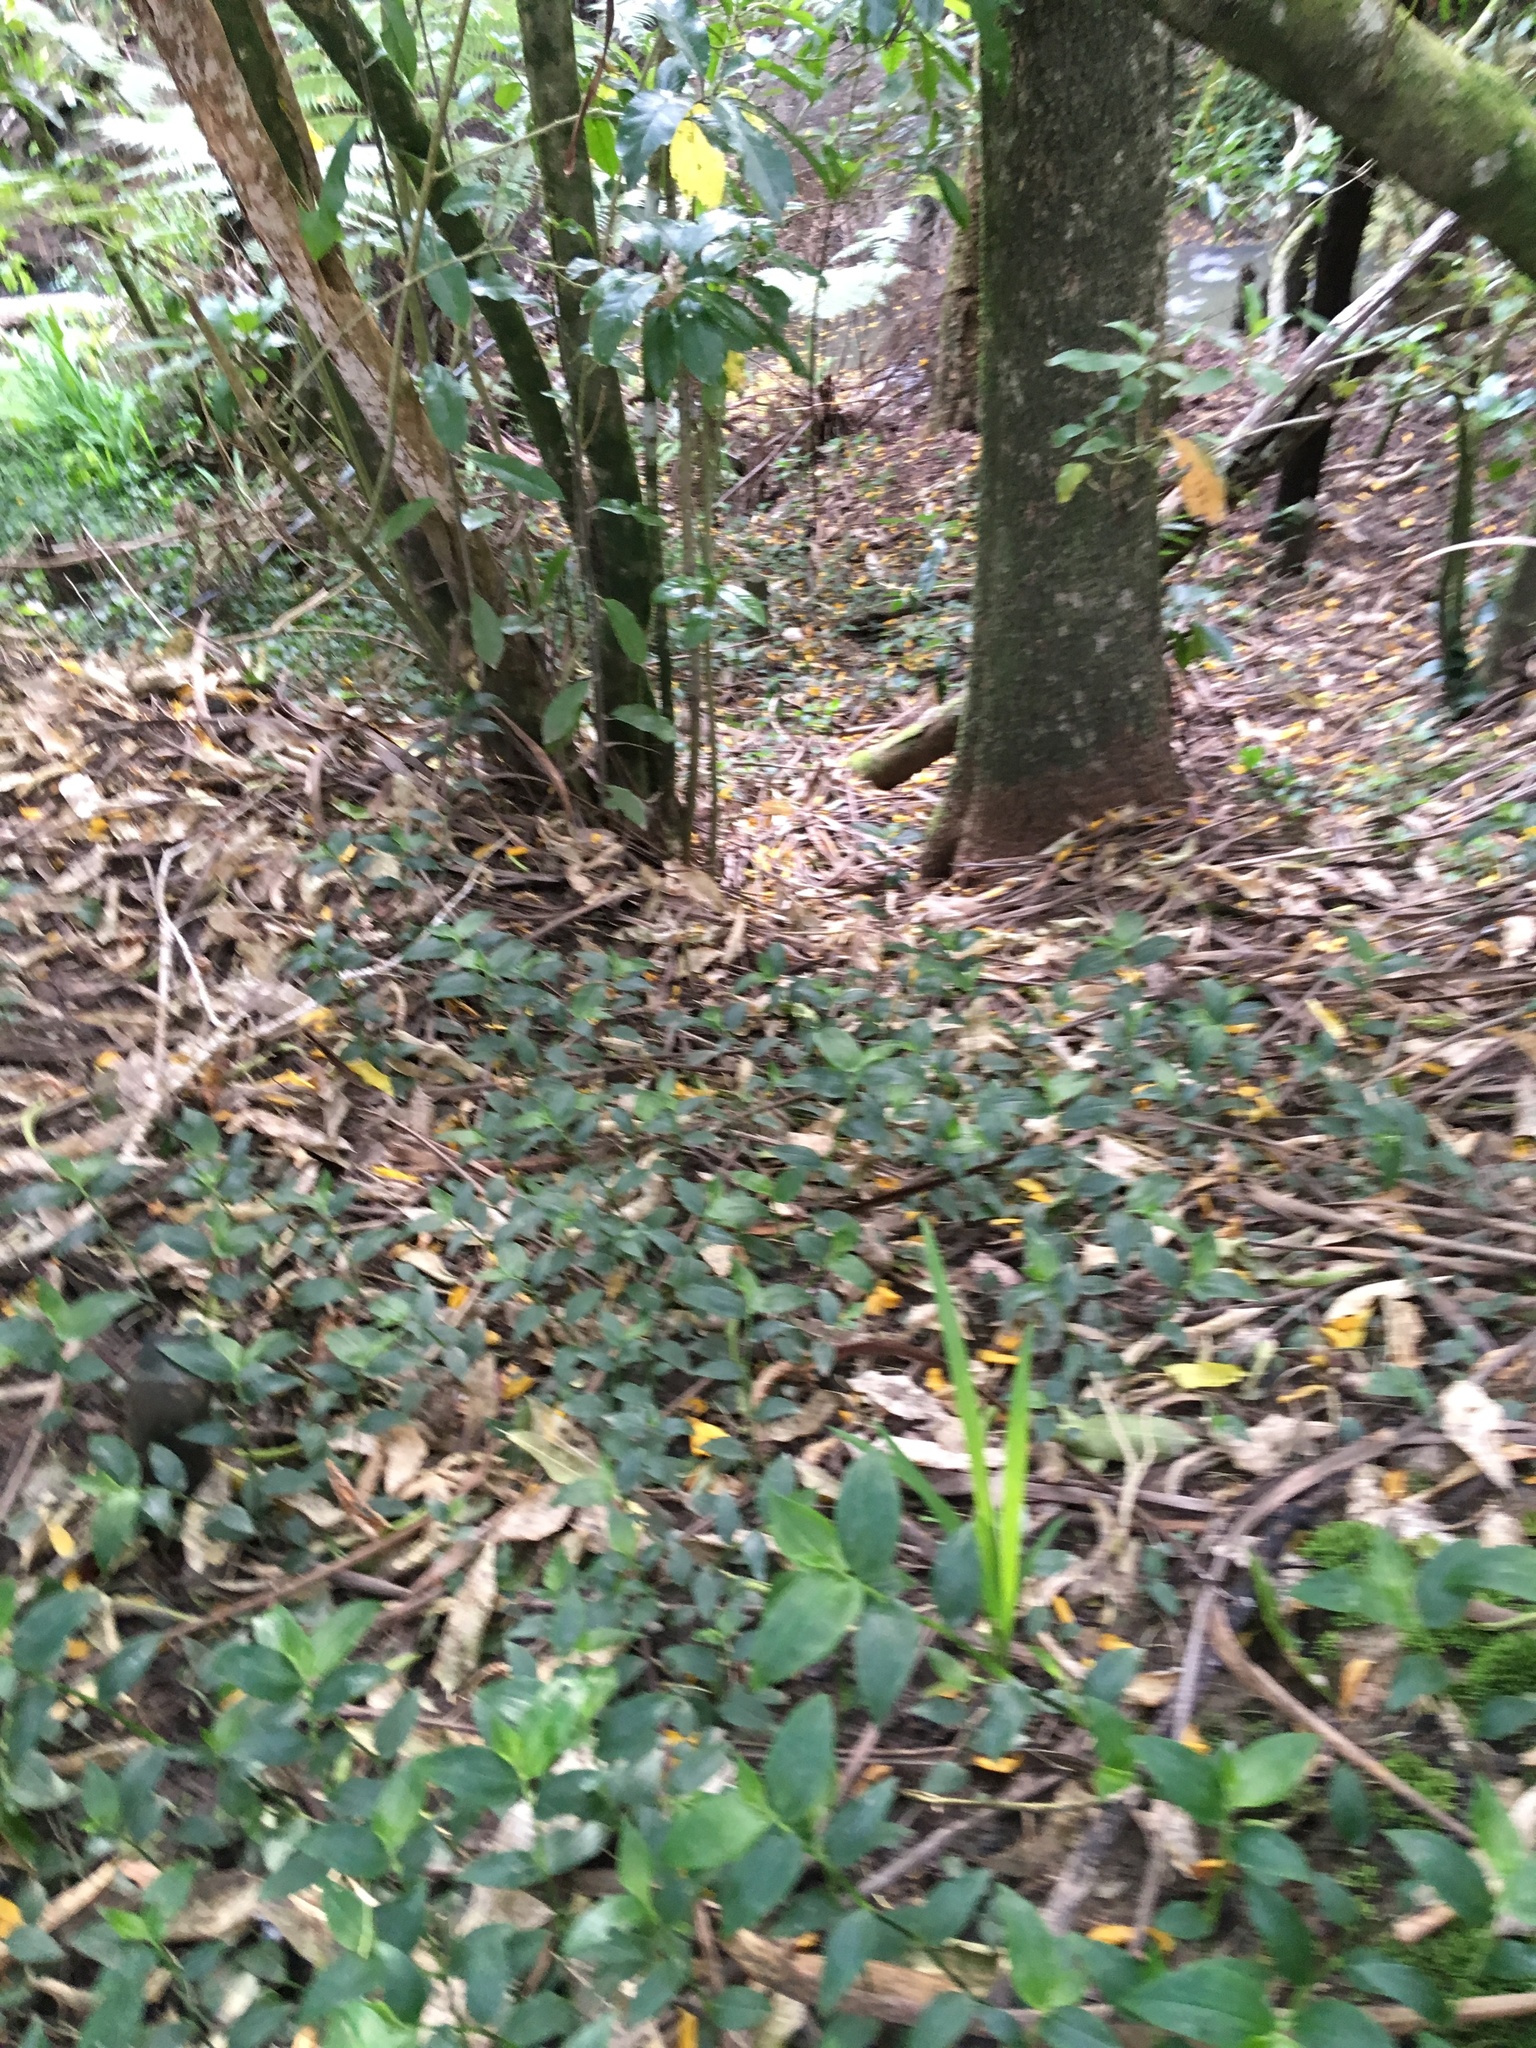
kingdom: Plantae
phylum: Tracheophyta
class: Liliopsida
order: Commelinales
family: Commelinaceae
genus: Tradescantia
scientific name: Tradescantia fluminensis
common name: Wandering-jew
